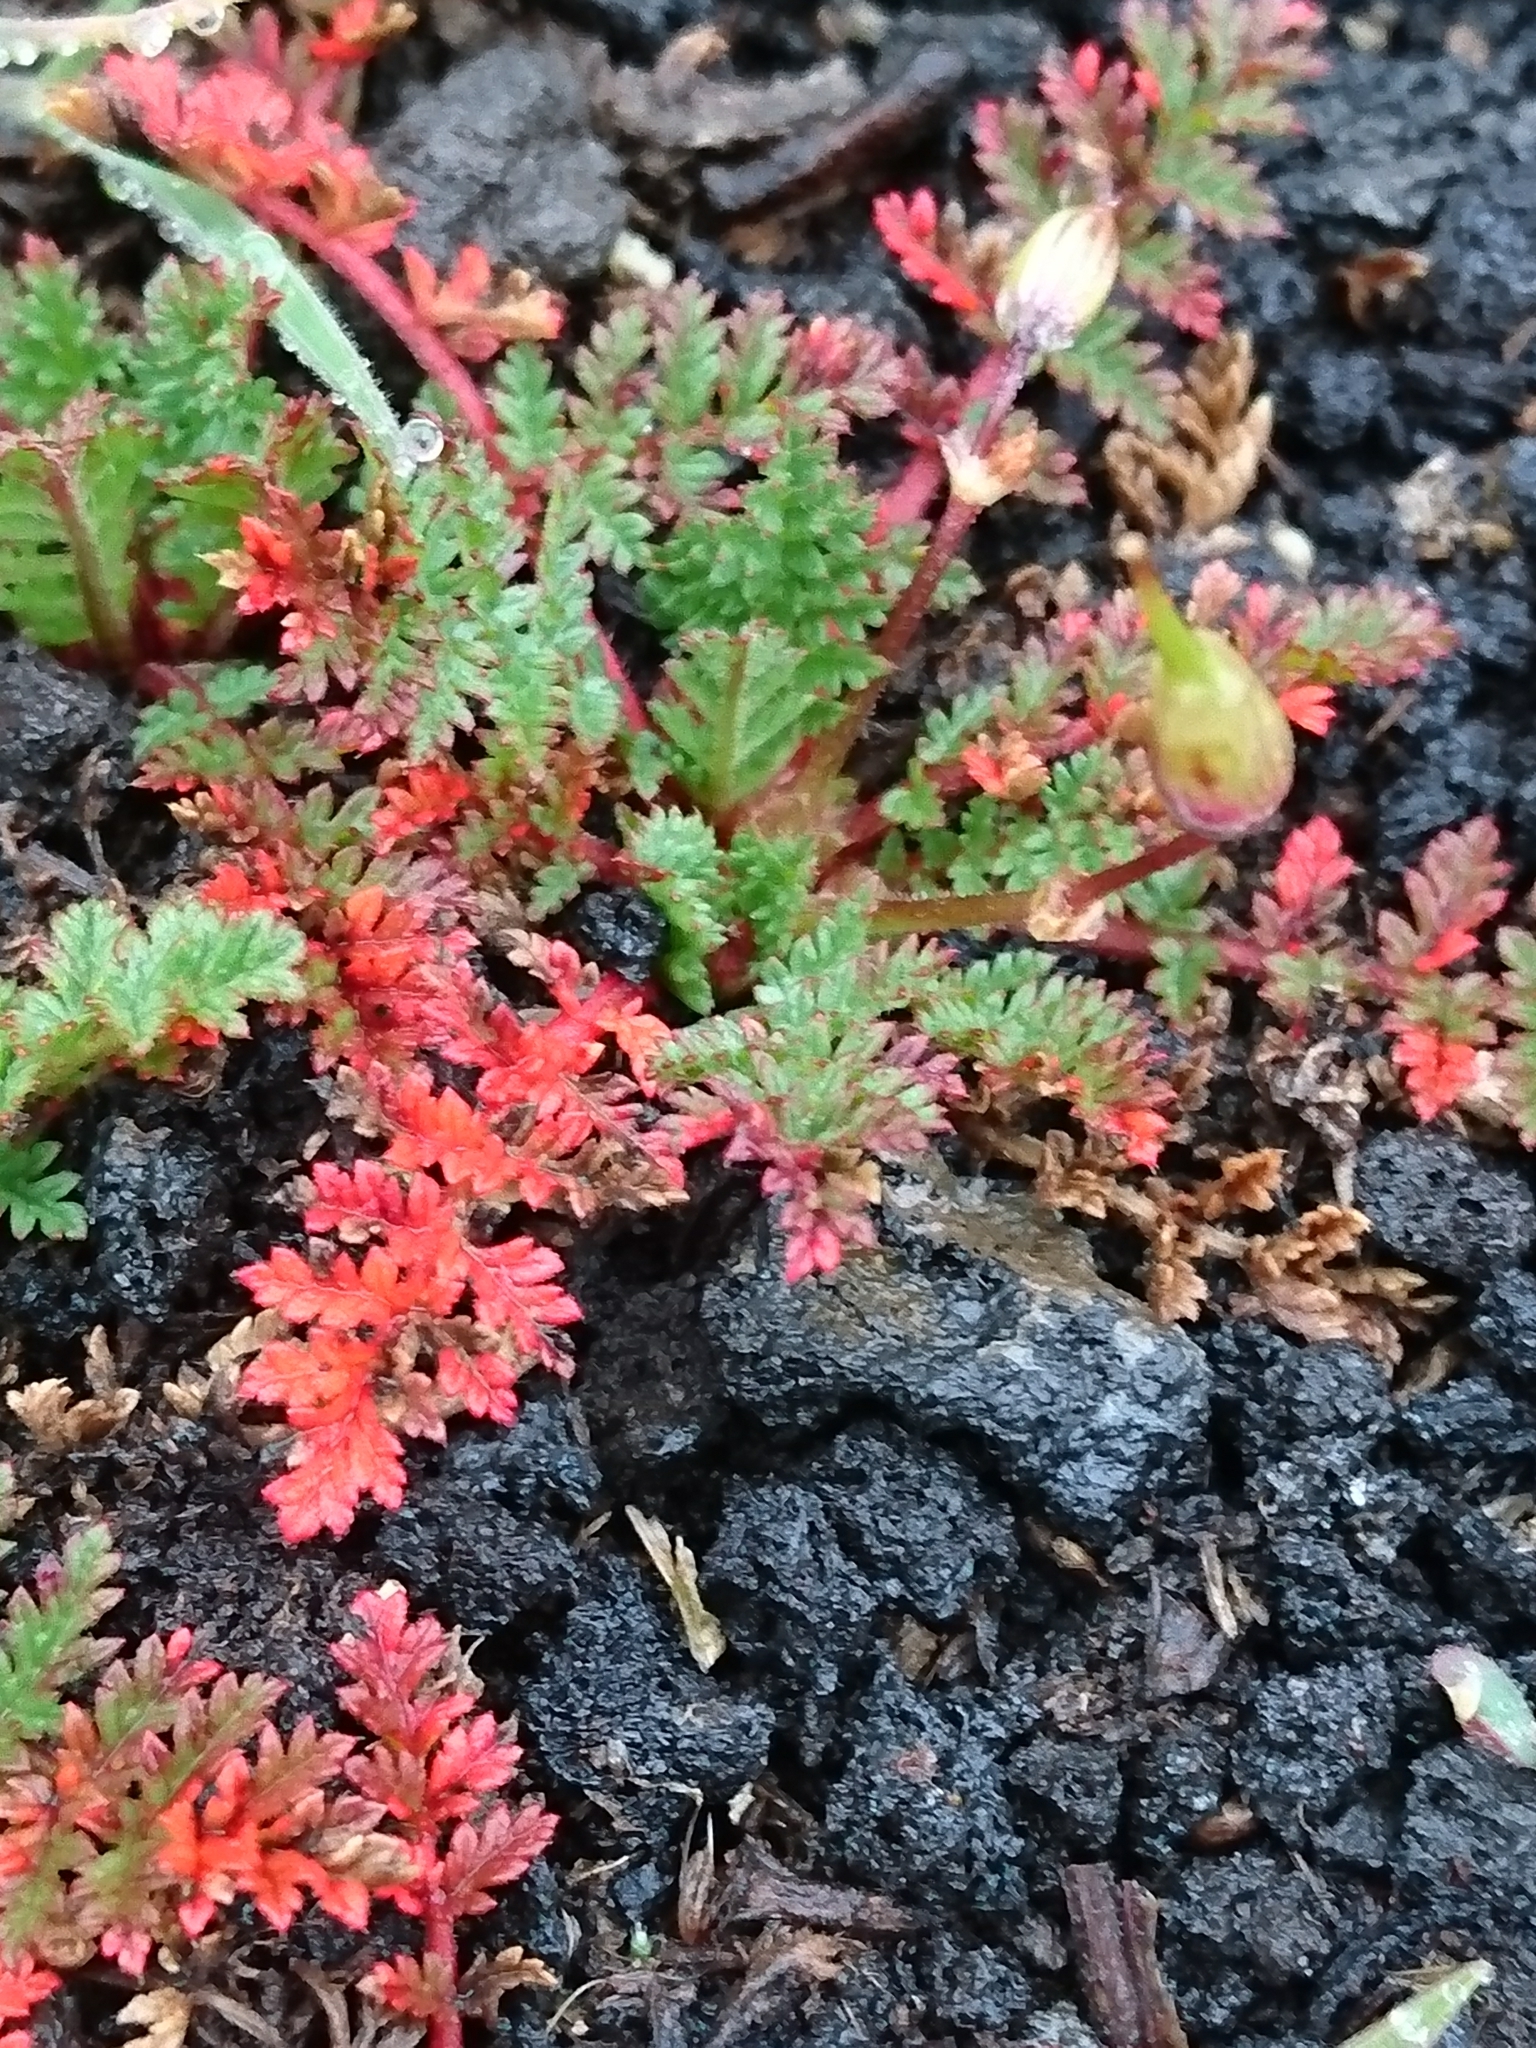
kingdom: Plantae
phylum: Tracheophyta
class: Magnoliopsida
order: Geraniales
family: Geraniaceae
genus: Erodium
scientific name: Erodium cicutarium
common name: Common stork's-bill
